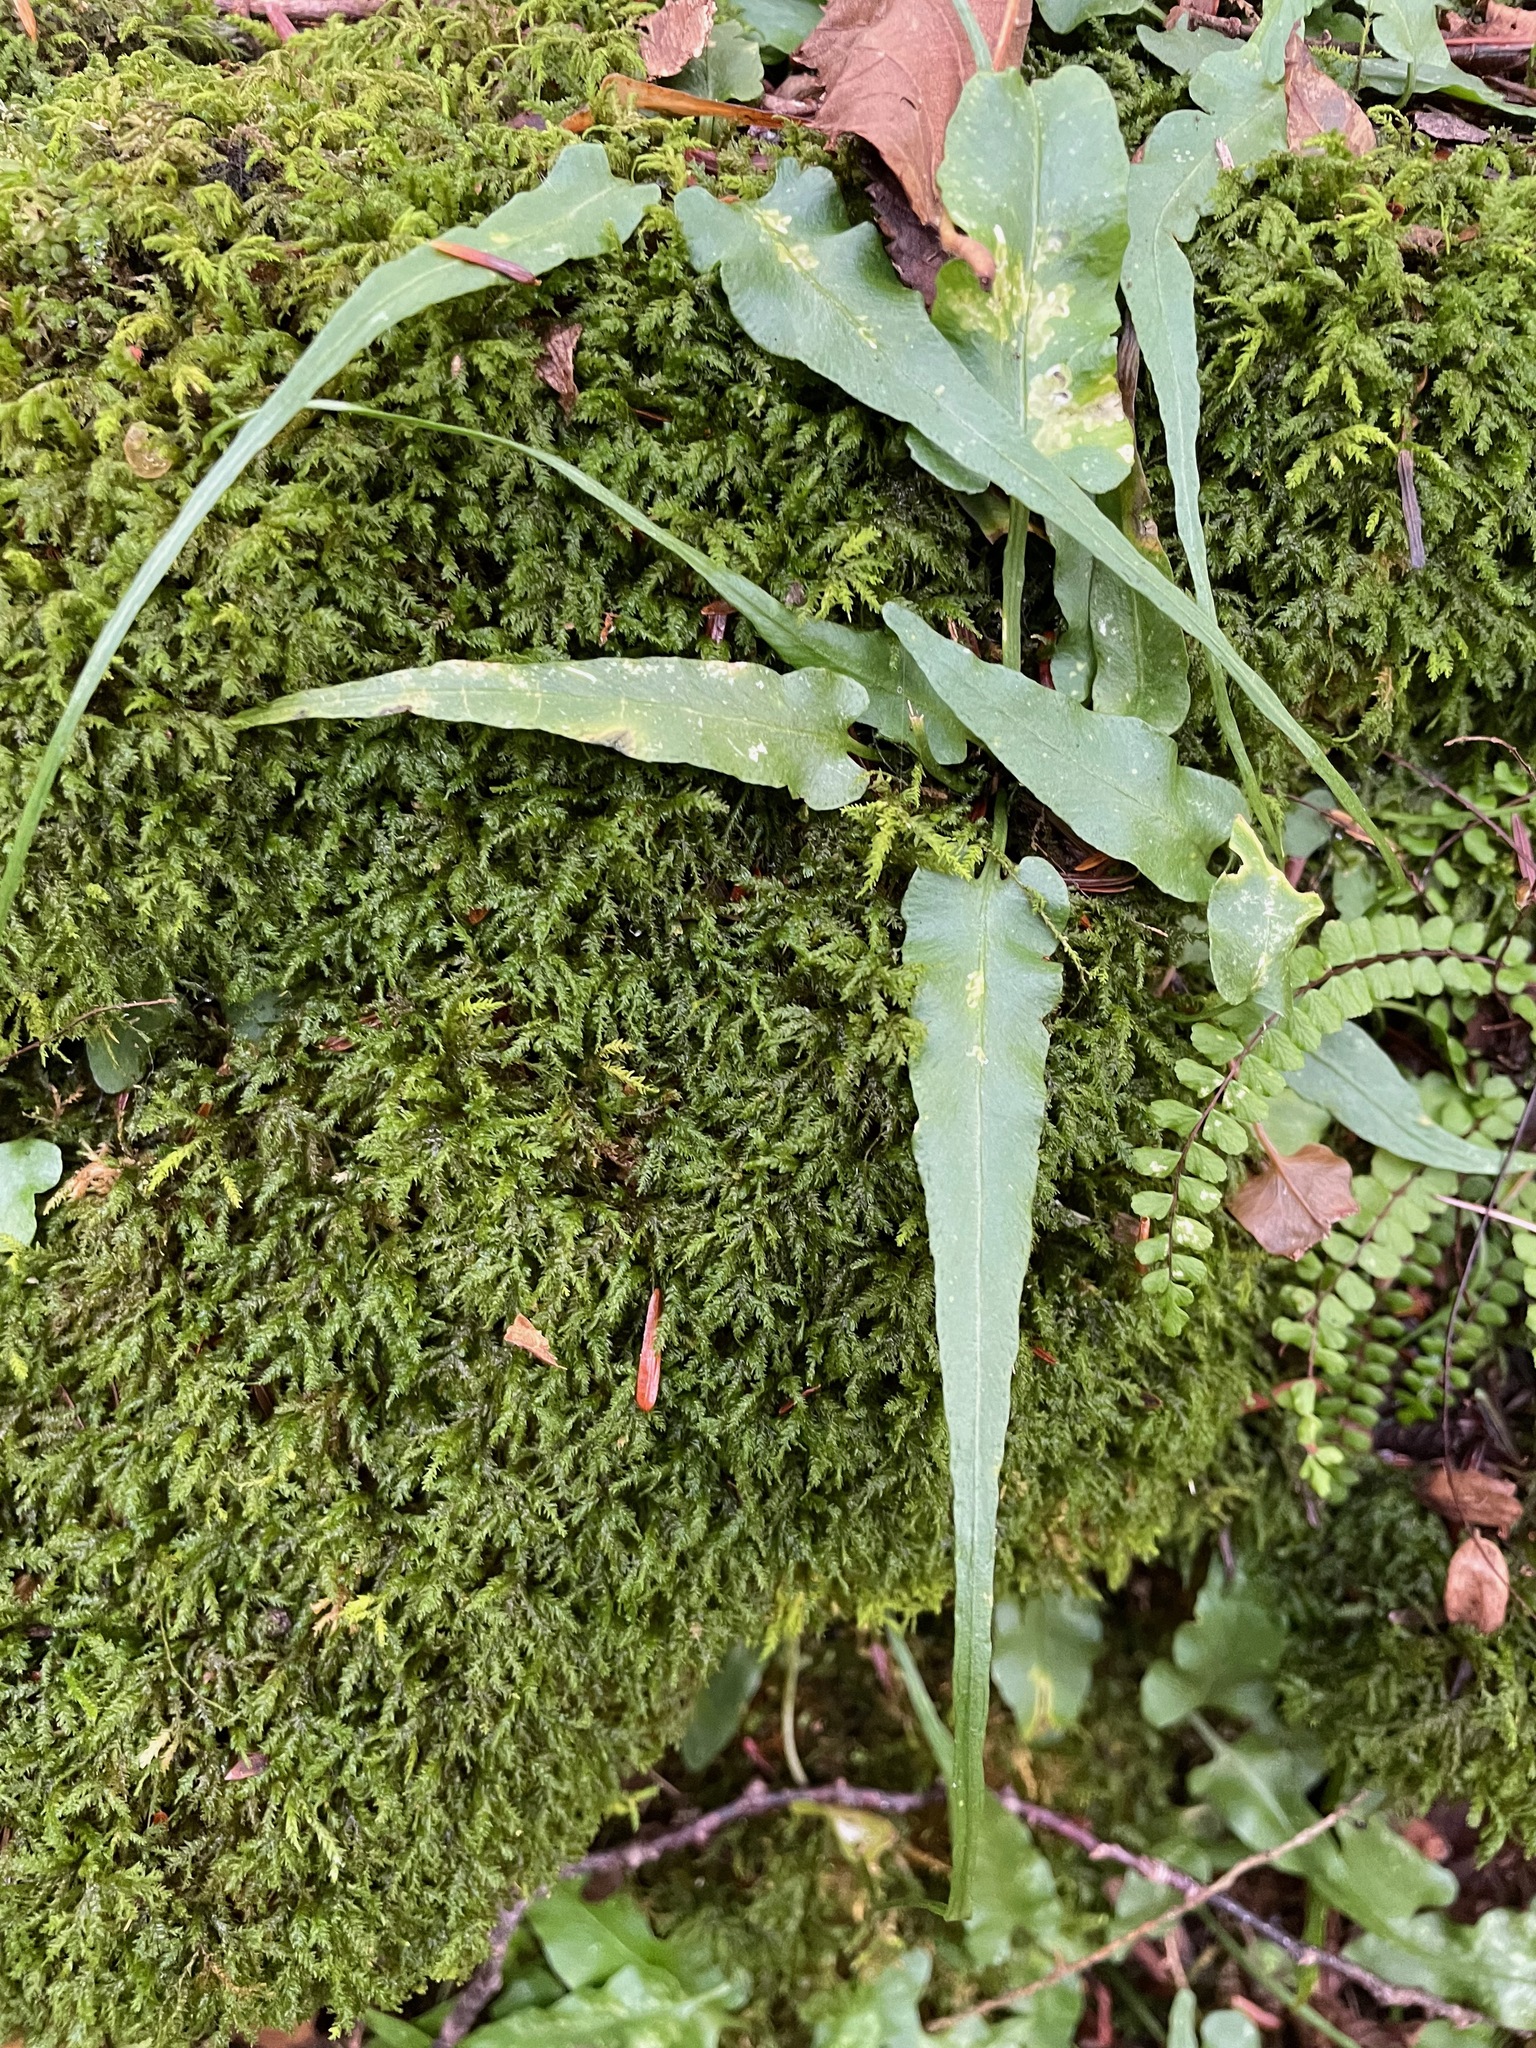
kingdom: Plantae
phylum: Tracheophyta
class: Polypodiopsida
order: Polypodiales
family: Aspleniaceae
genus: Asplenium
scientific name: Asplenium rhizophyllum
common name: Walking fern
